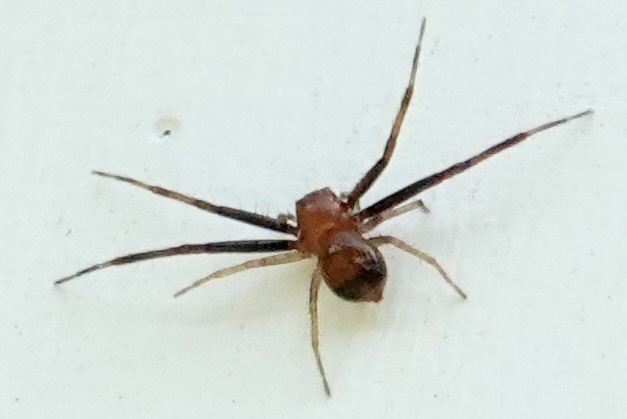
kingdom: Animalia
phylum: Arthropoda
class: Arachnida
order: Araneae
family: Thomisidae
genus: Synema
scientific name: Synema parvulum
